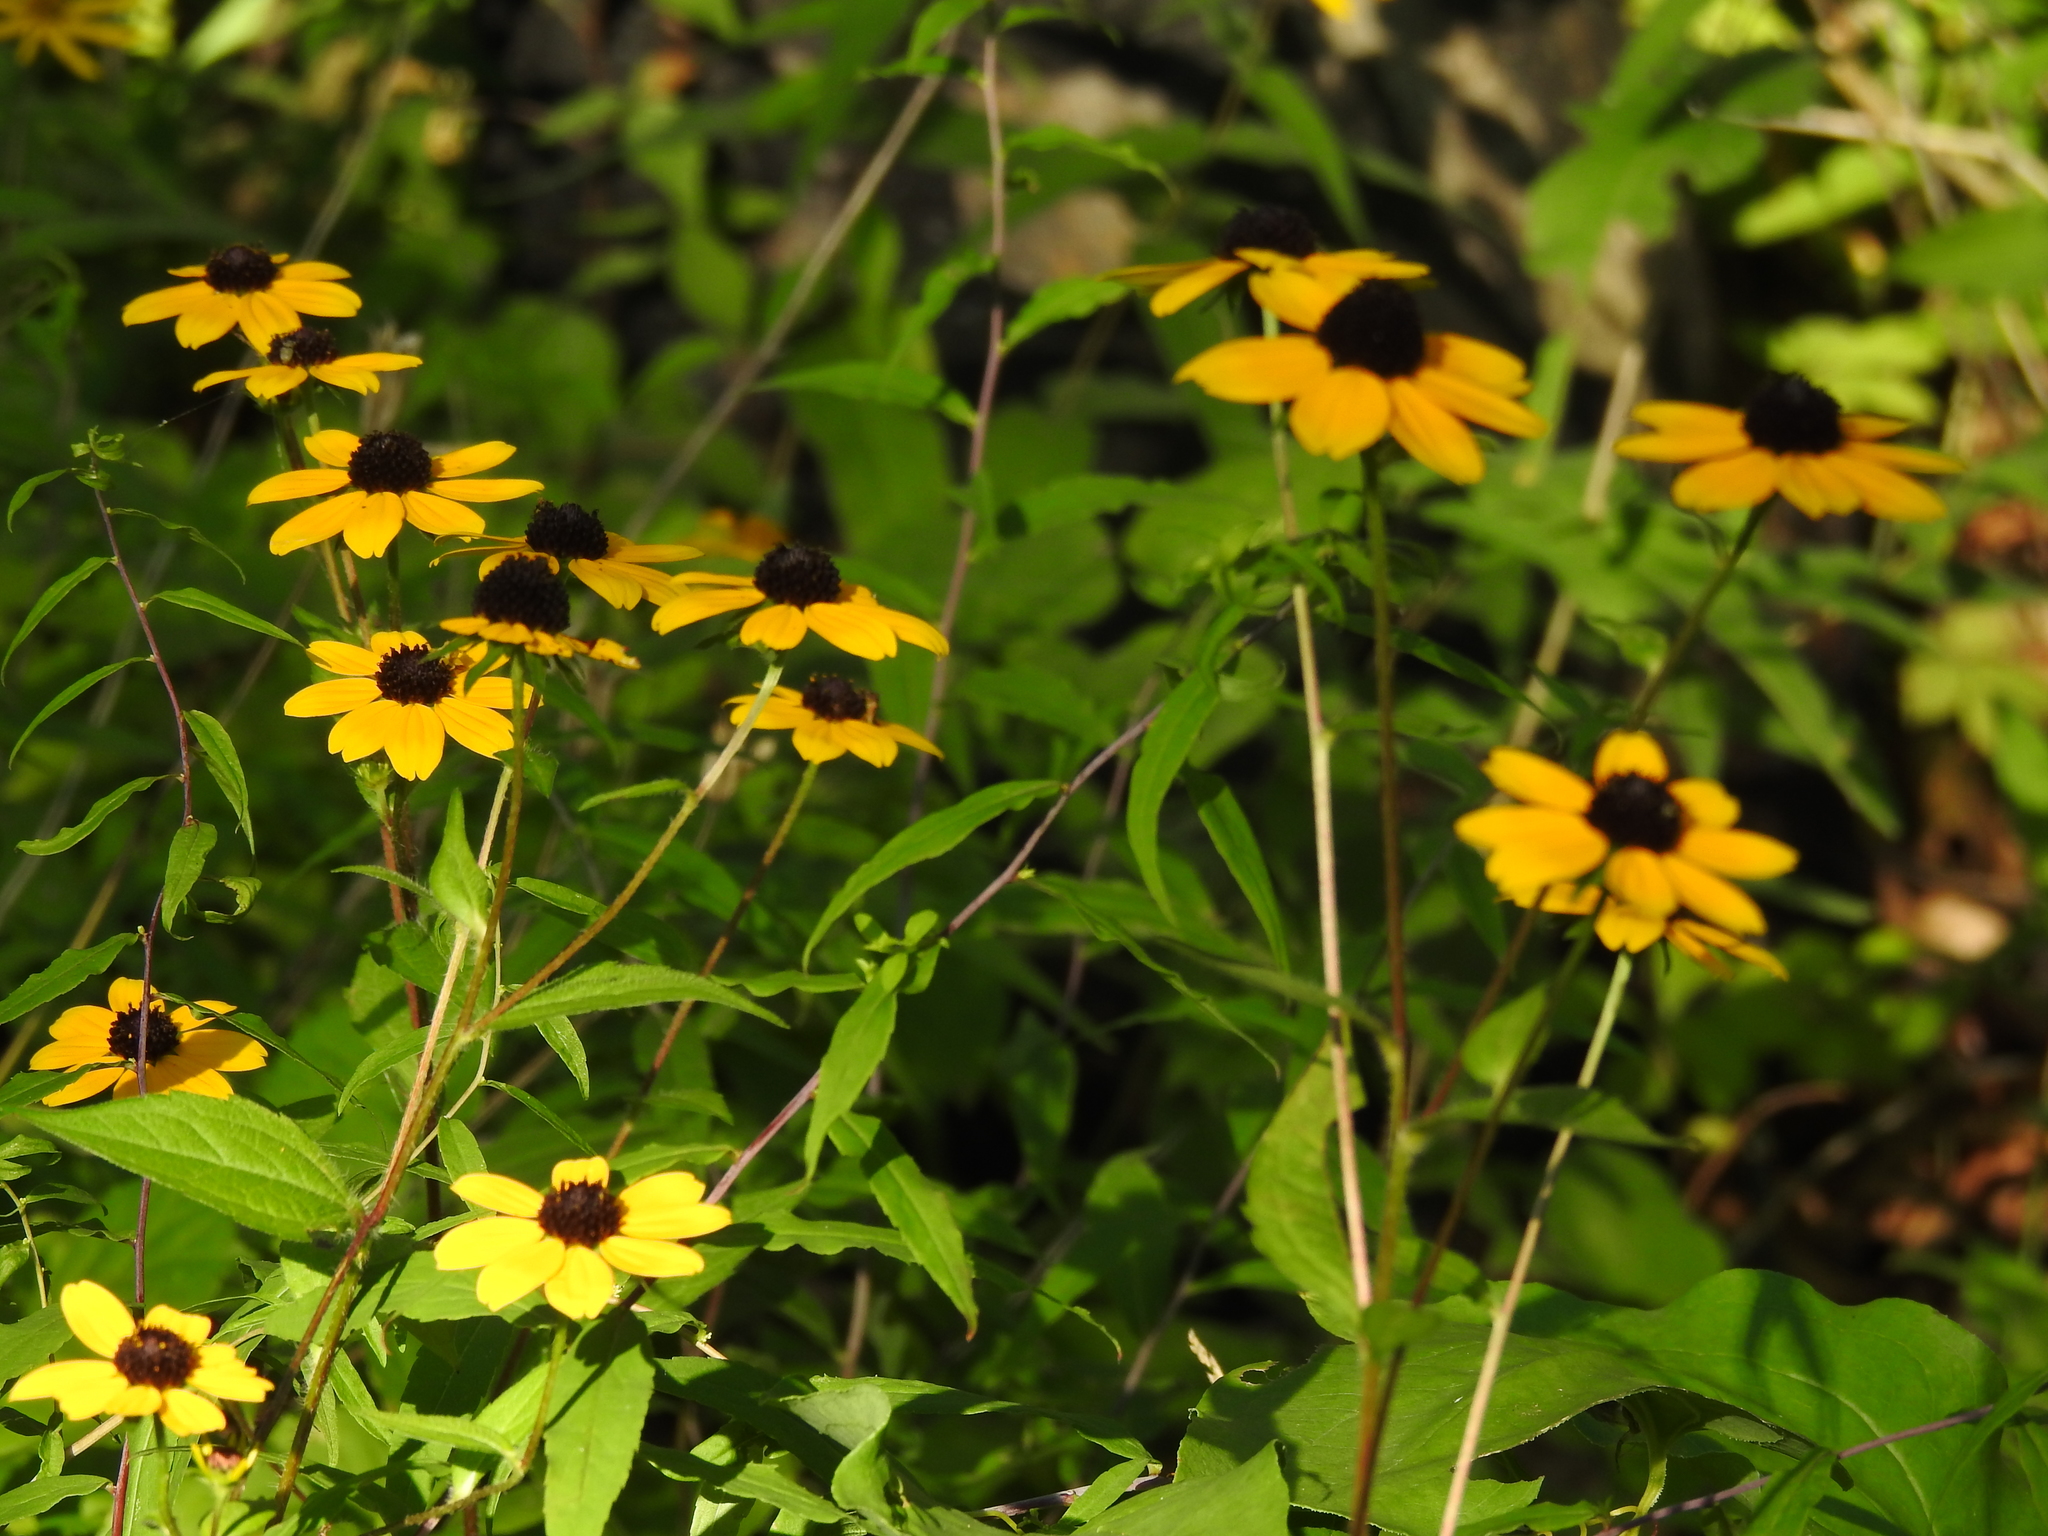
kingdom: Plantae
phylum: Tracheophyta
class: Magnoliopsida
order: Asterales
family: Asteraceae
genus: Rudbeckia
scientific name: Rudbeckia triloba
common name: Thin-leaved coneflower
